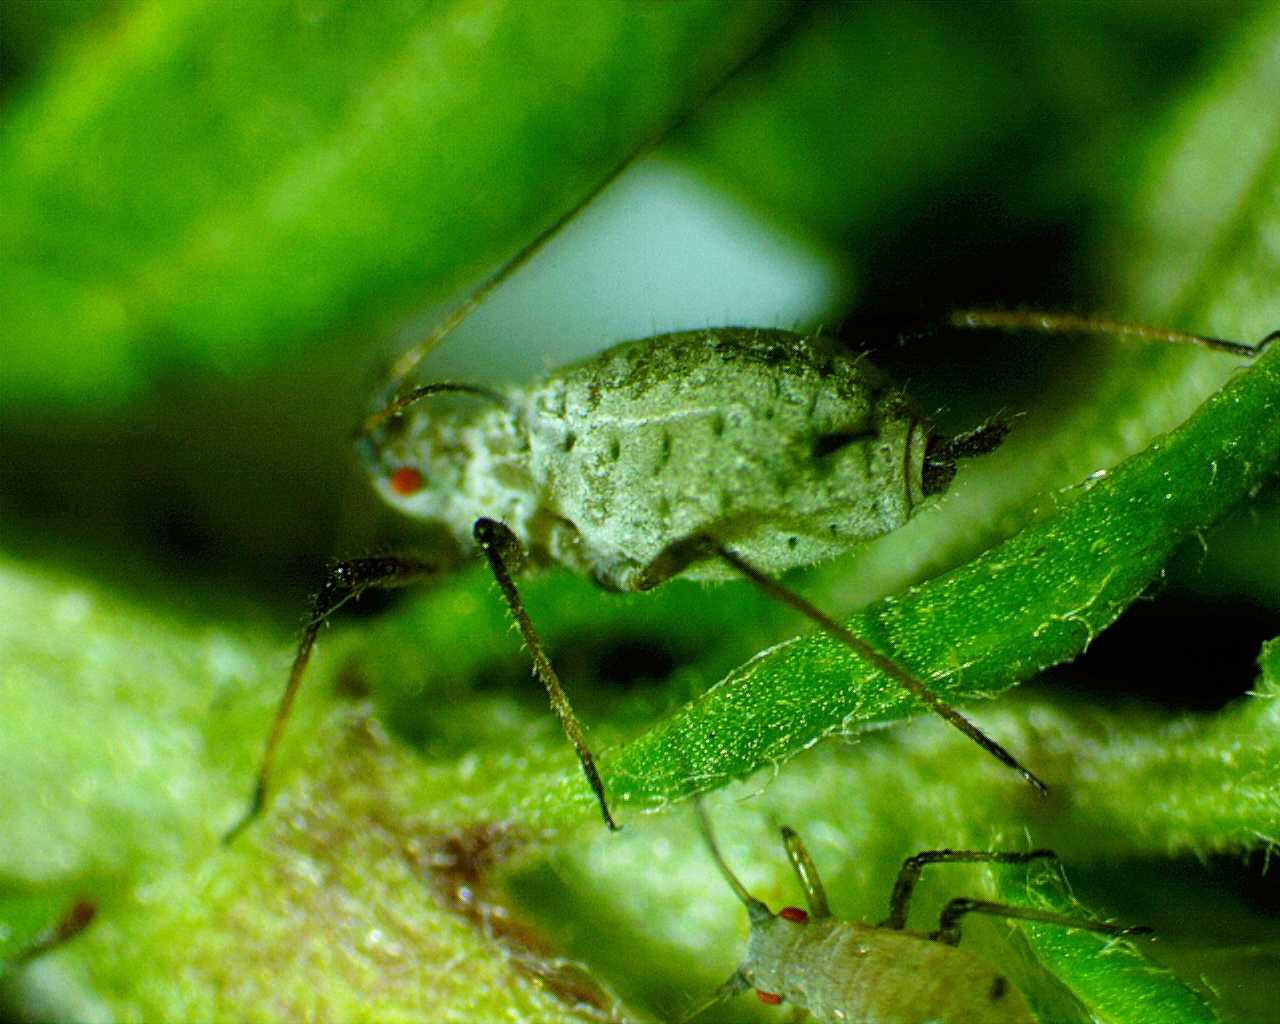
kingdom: Animalia
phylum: Arthropoda
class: Insecta
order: Hemiptera
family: Aphididae
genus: Macrosiphoniella
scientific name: Macrosiphoniella artemisiae
